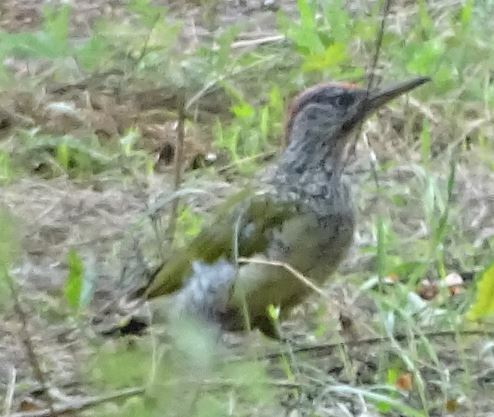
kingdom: Animalia
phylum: Chordata
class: Aves
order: Piciformes
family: Picidae
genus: Picus
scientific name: Picus viridis
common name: European green woodpecker
